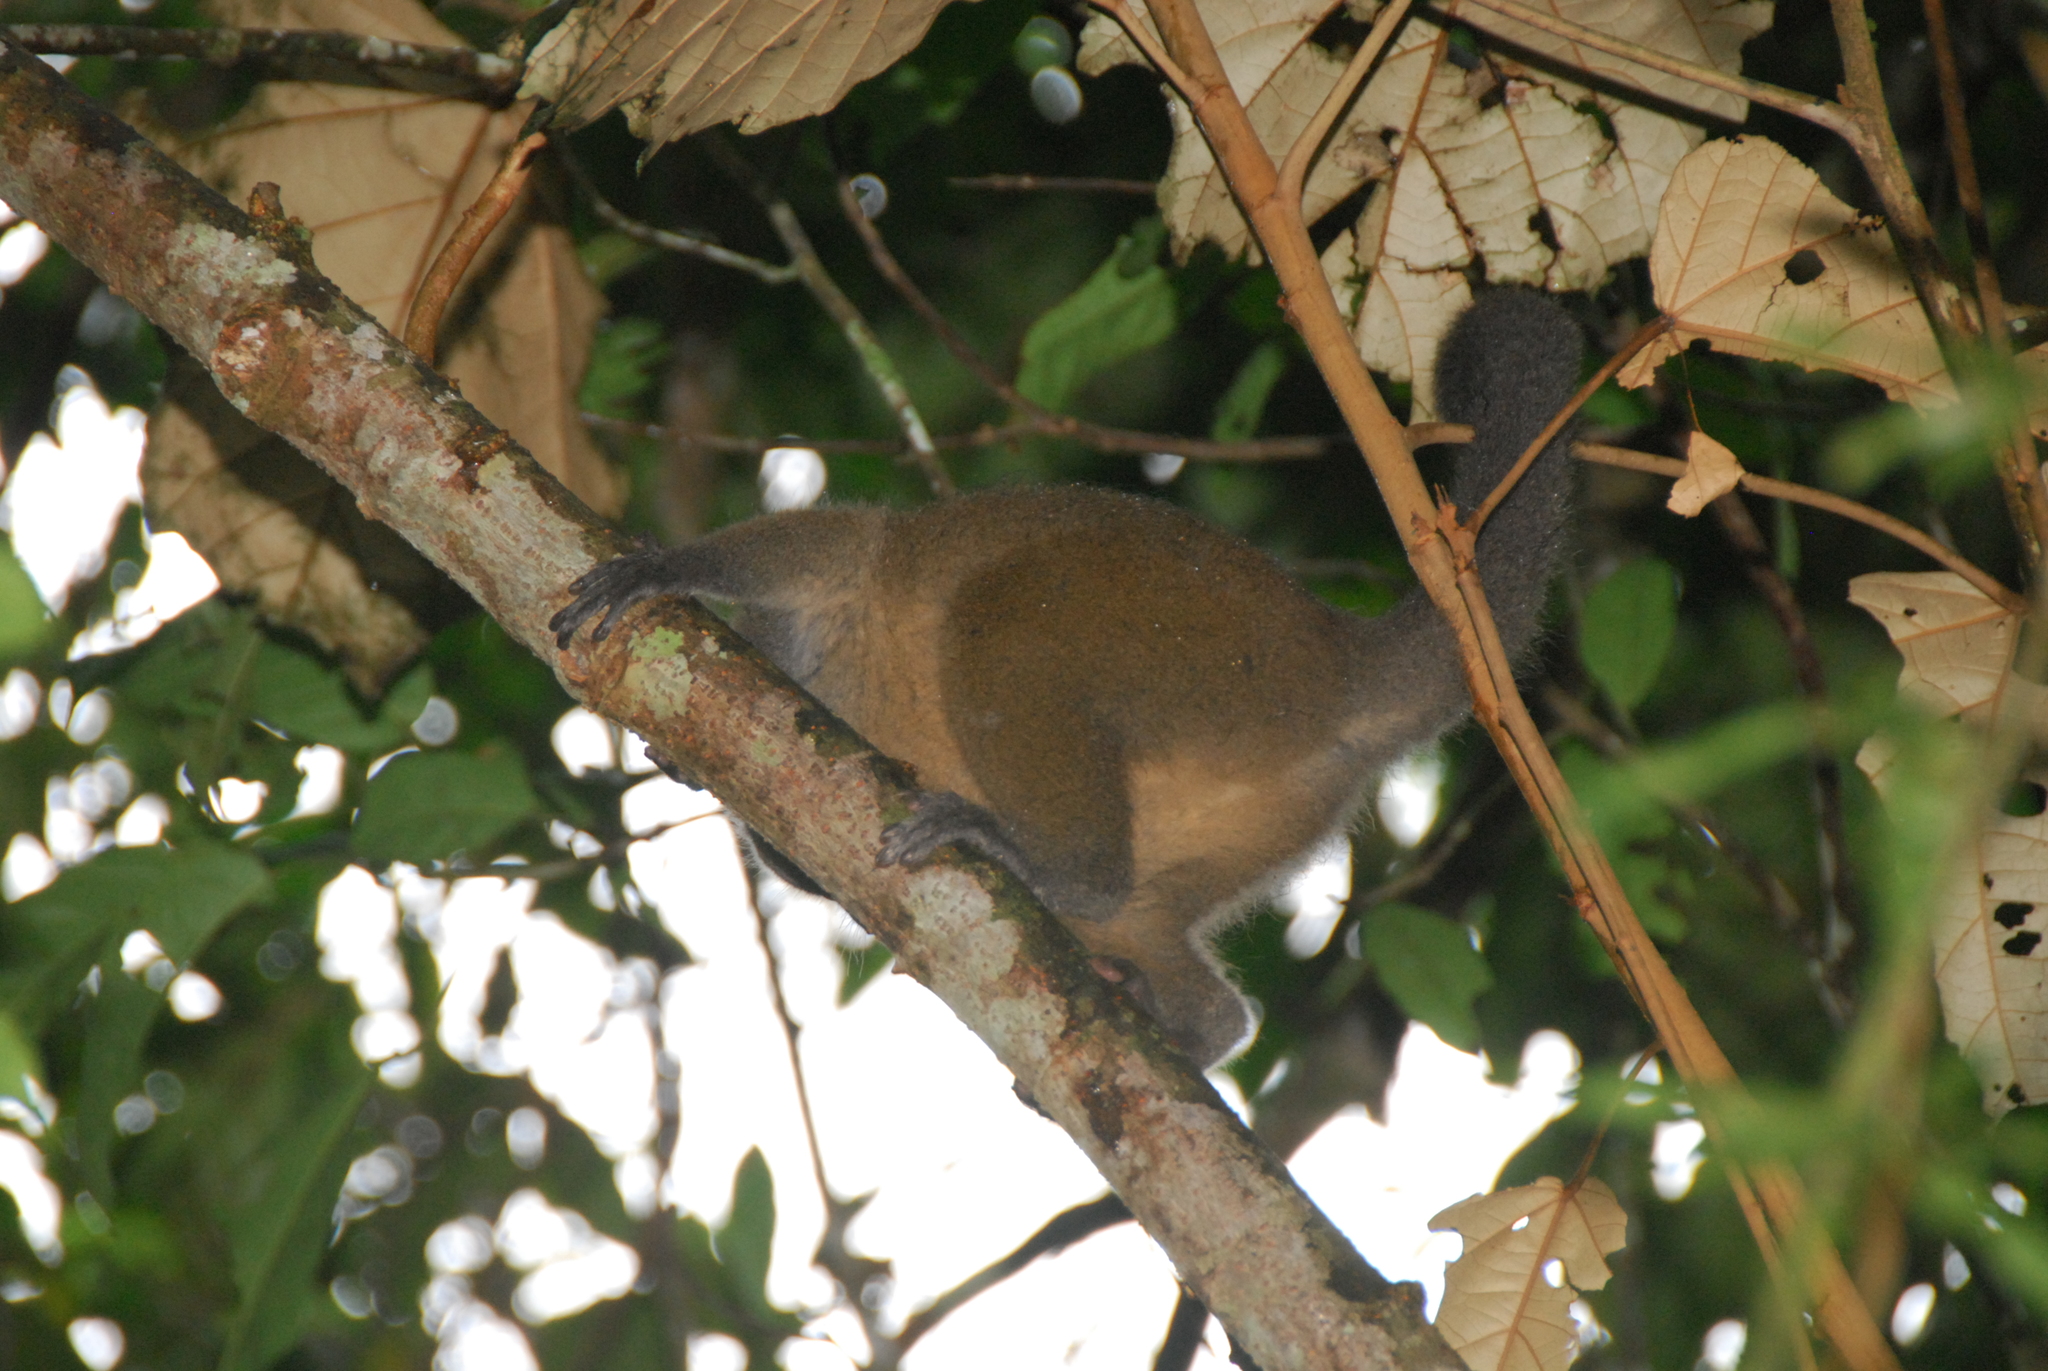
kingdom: Animalia
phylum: Chordata
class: Mammalia
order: Primates
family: Lemuridae
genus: Hapalemur
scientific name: Hapalemur griseus
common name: Gray bamboo lemur
